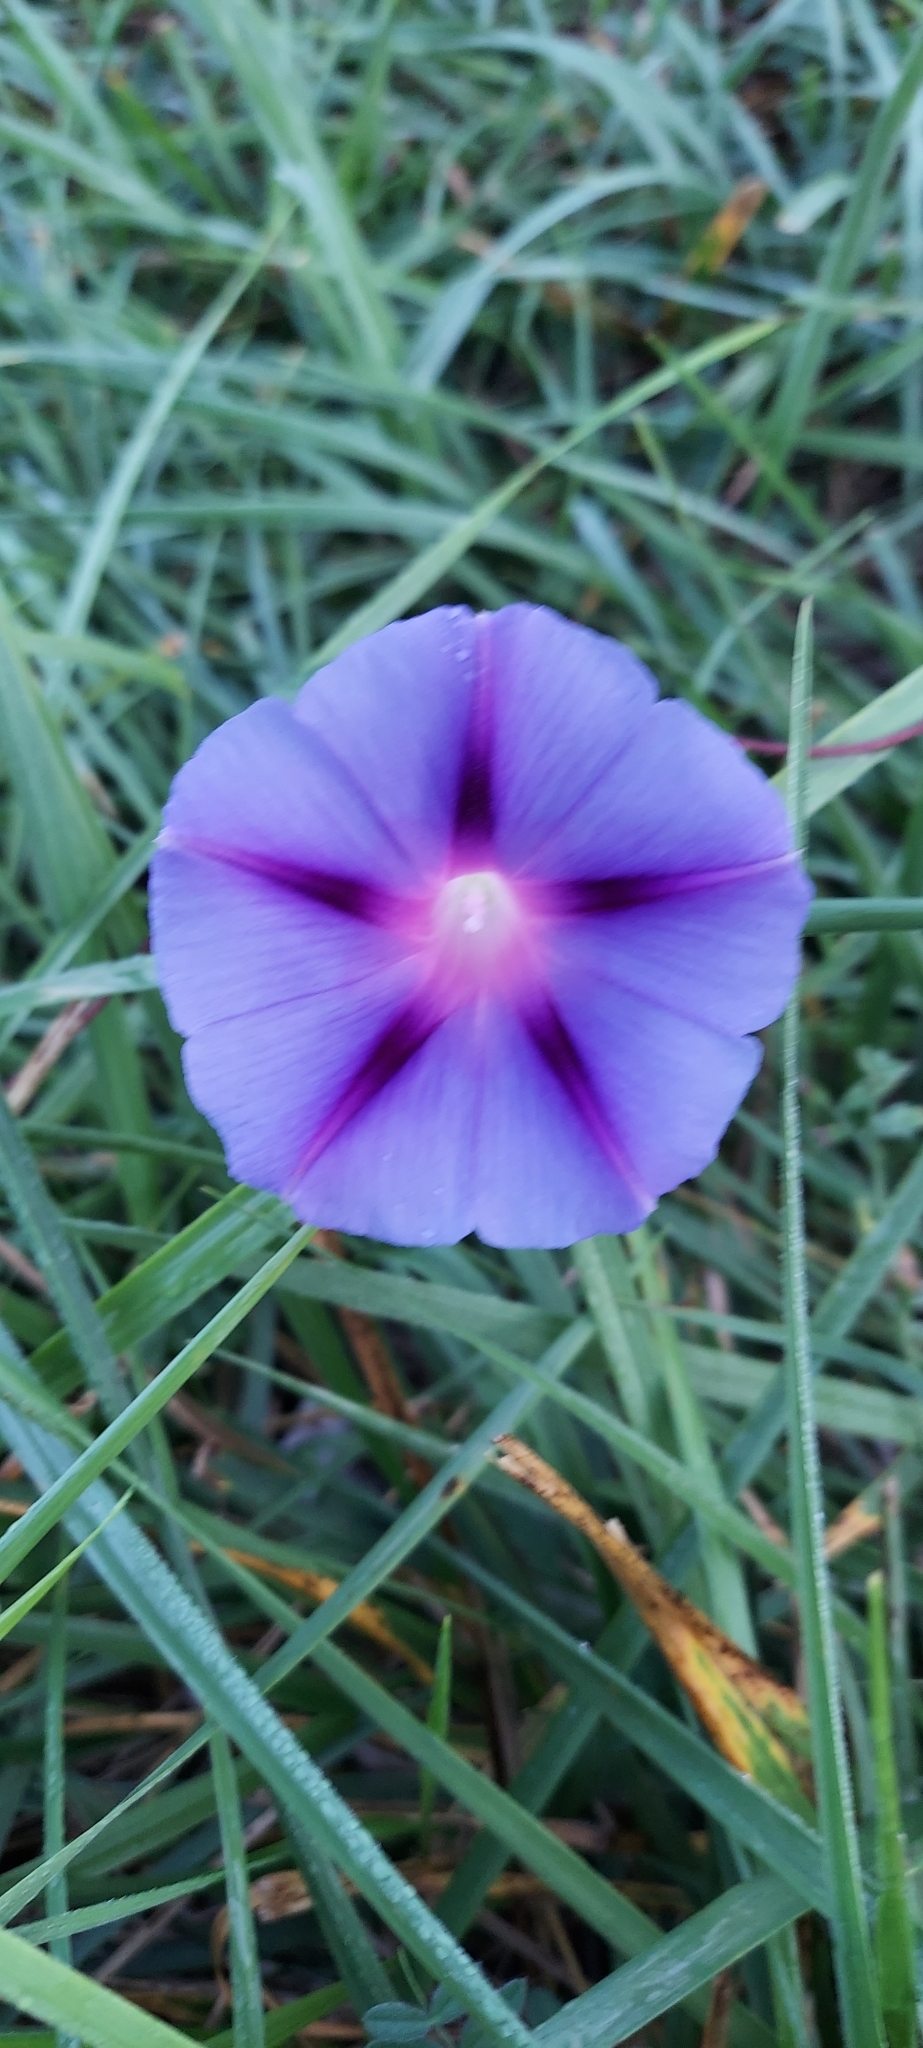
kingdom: Plantae
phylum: Tracheophyta
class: Magnoliopsida
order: Solanales
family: Convolvulaceae
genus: Ipomoea
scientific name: Ipomoea purpurea
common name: Common morning-glory
